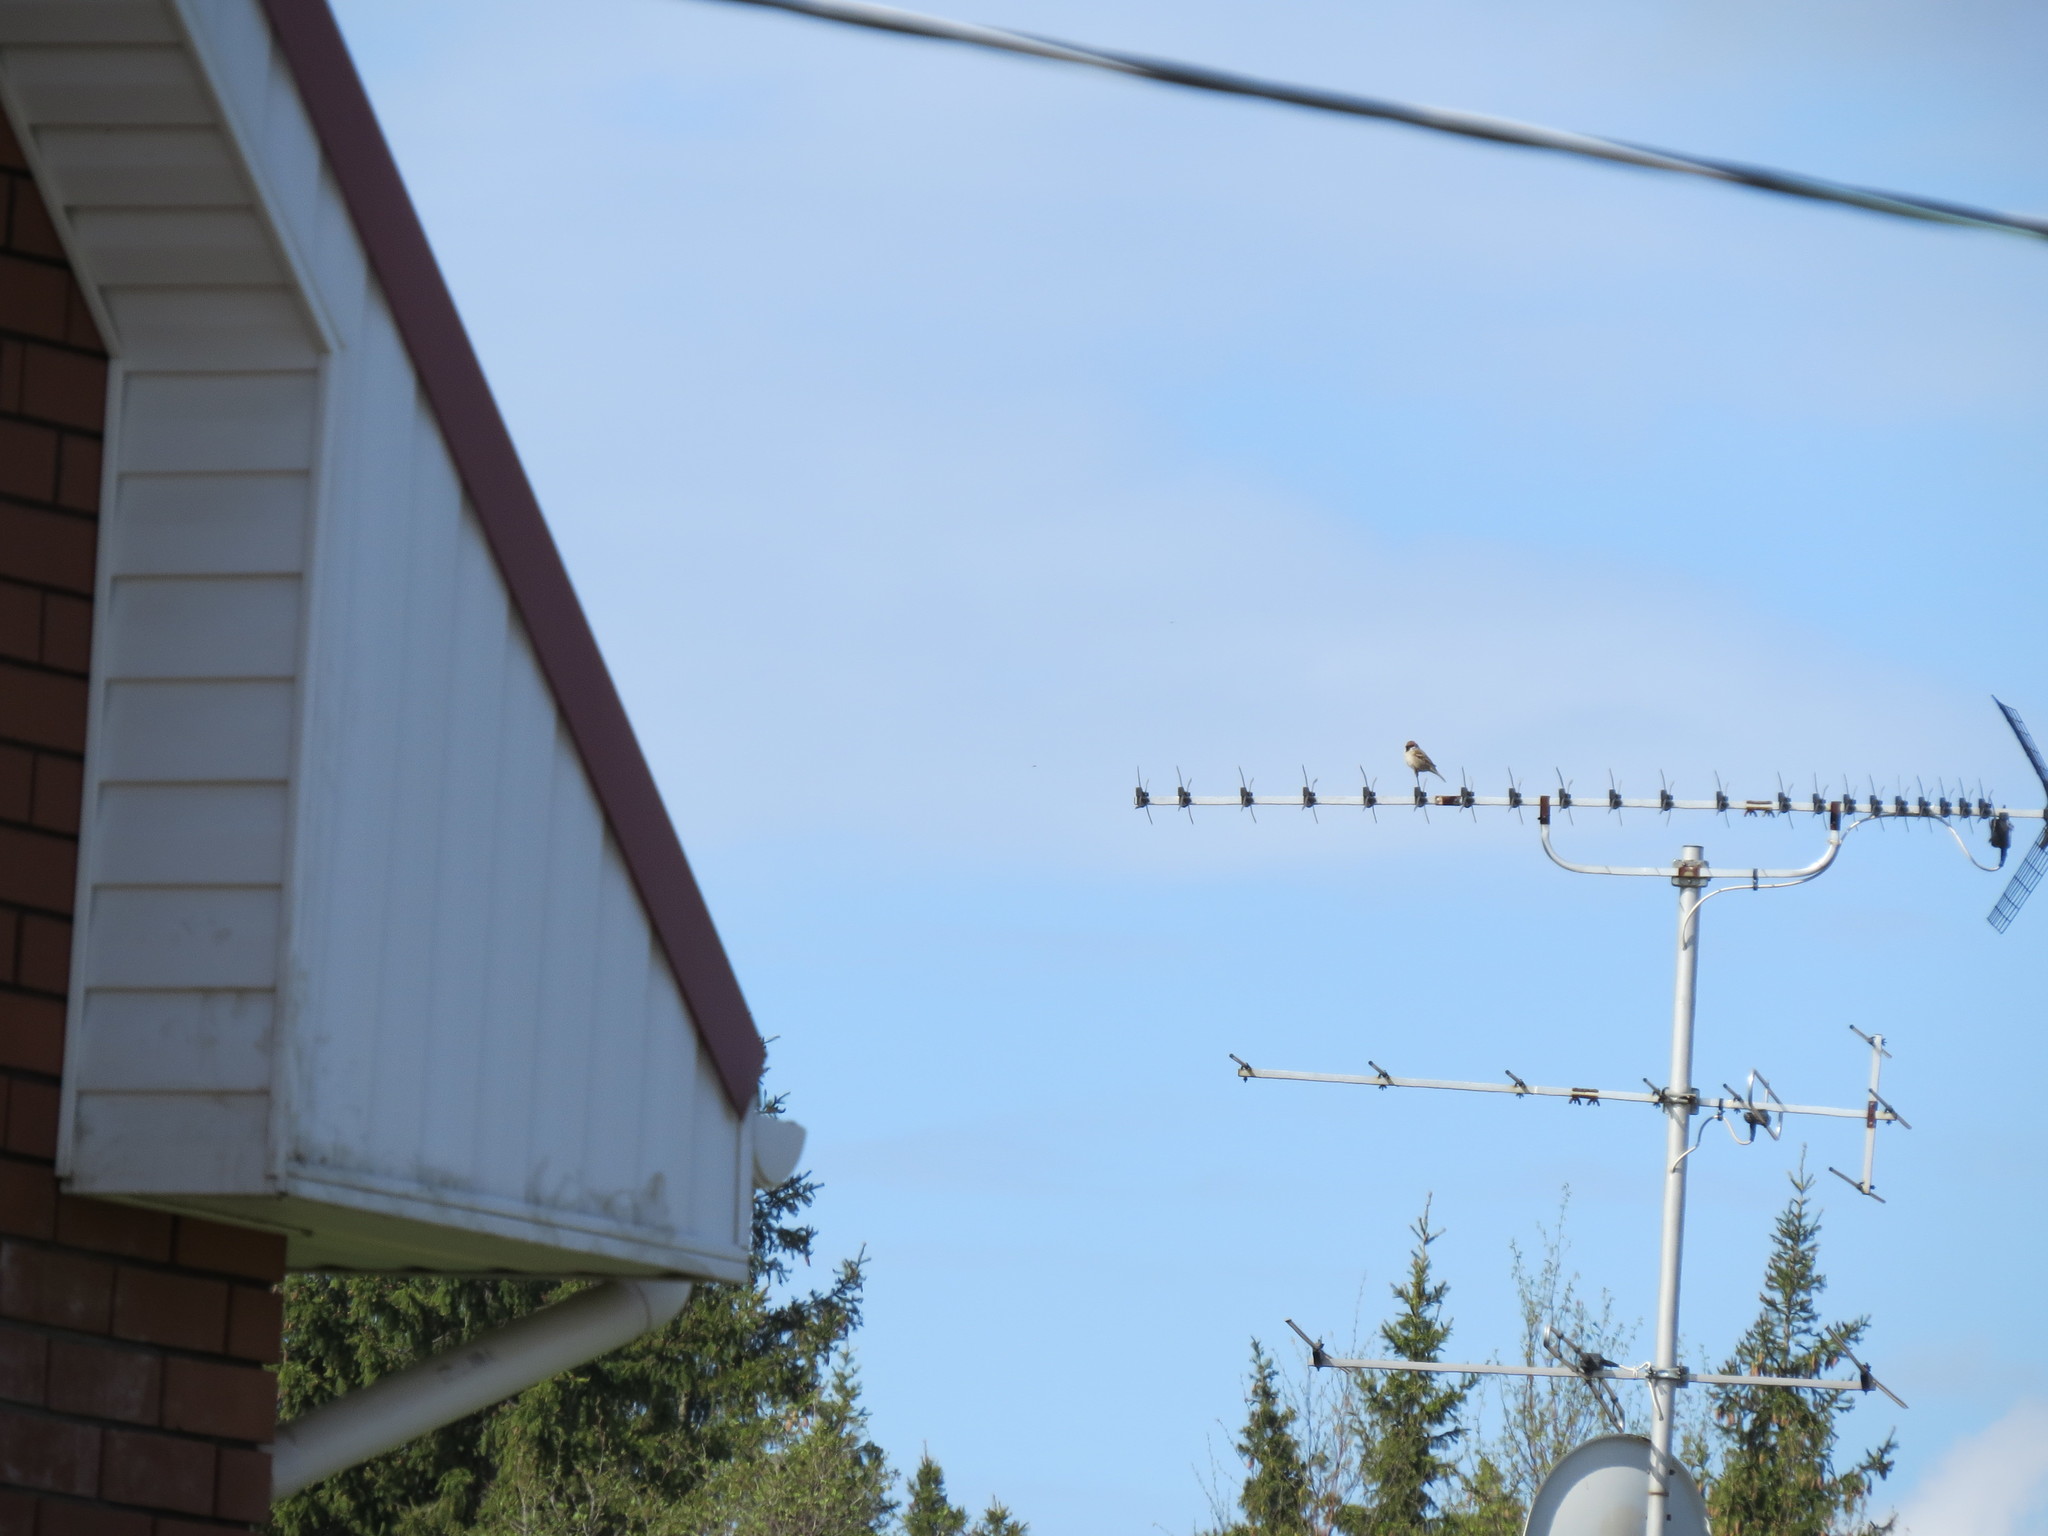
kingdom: Animalia
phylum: Chordata
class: Aves
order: Passeriformes
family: Passeridae
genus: Passer
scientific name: Passer montanus
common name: Eurasian tree sparrow
